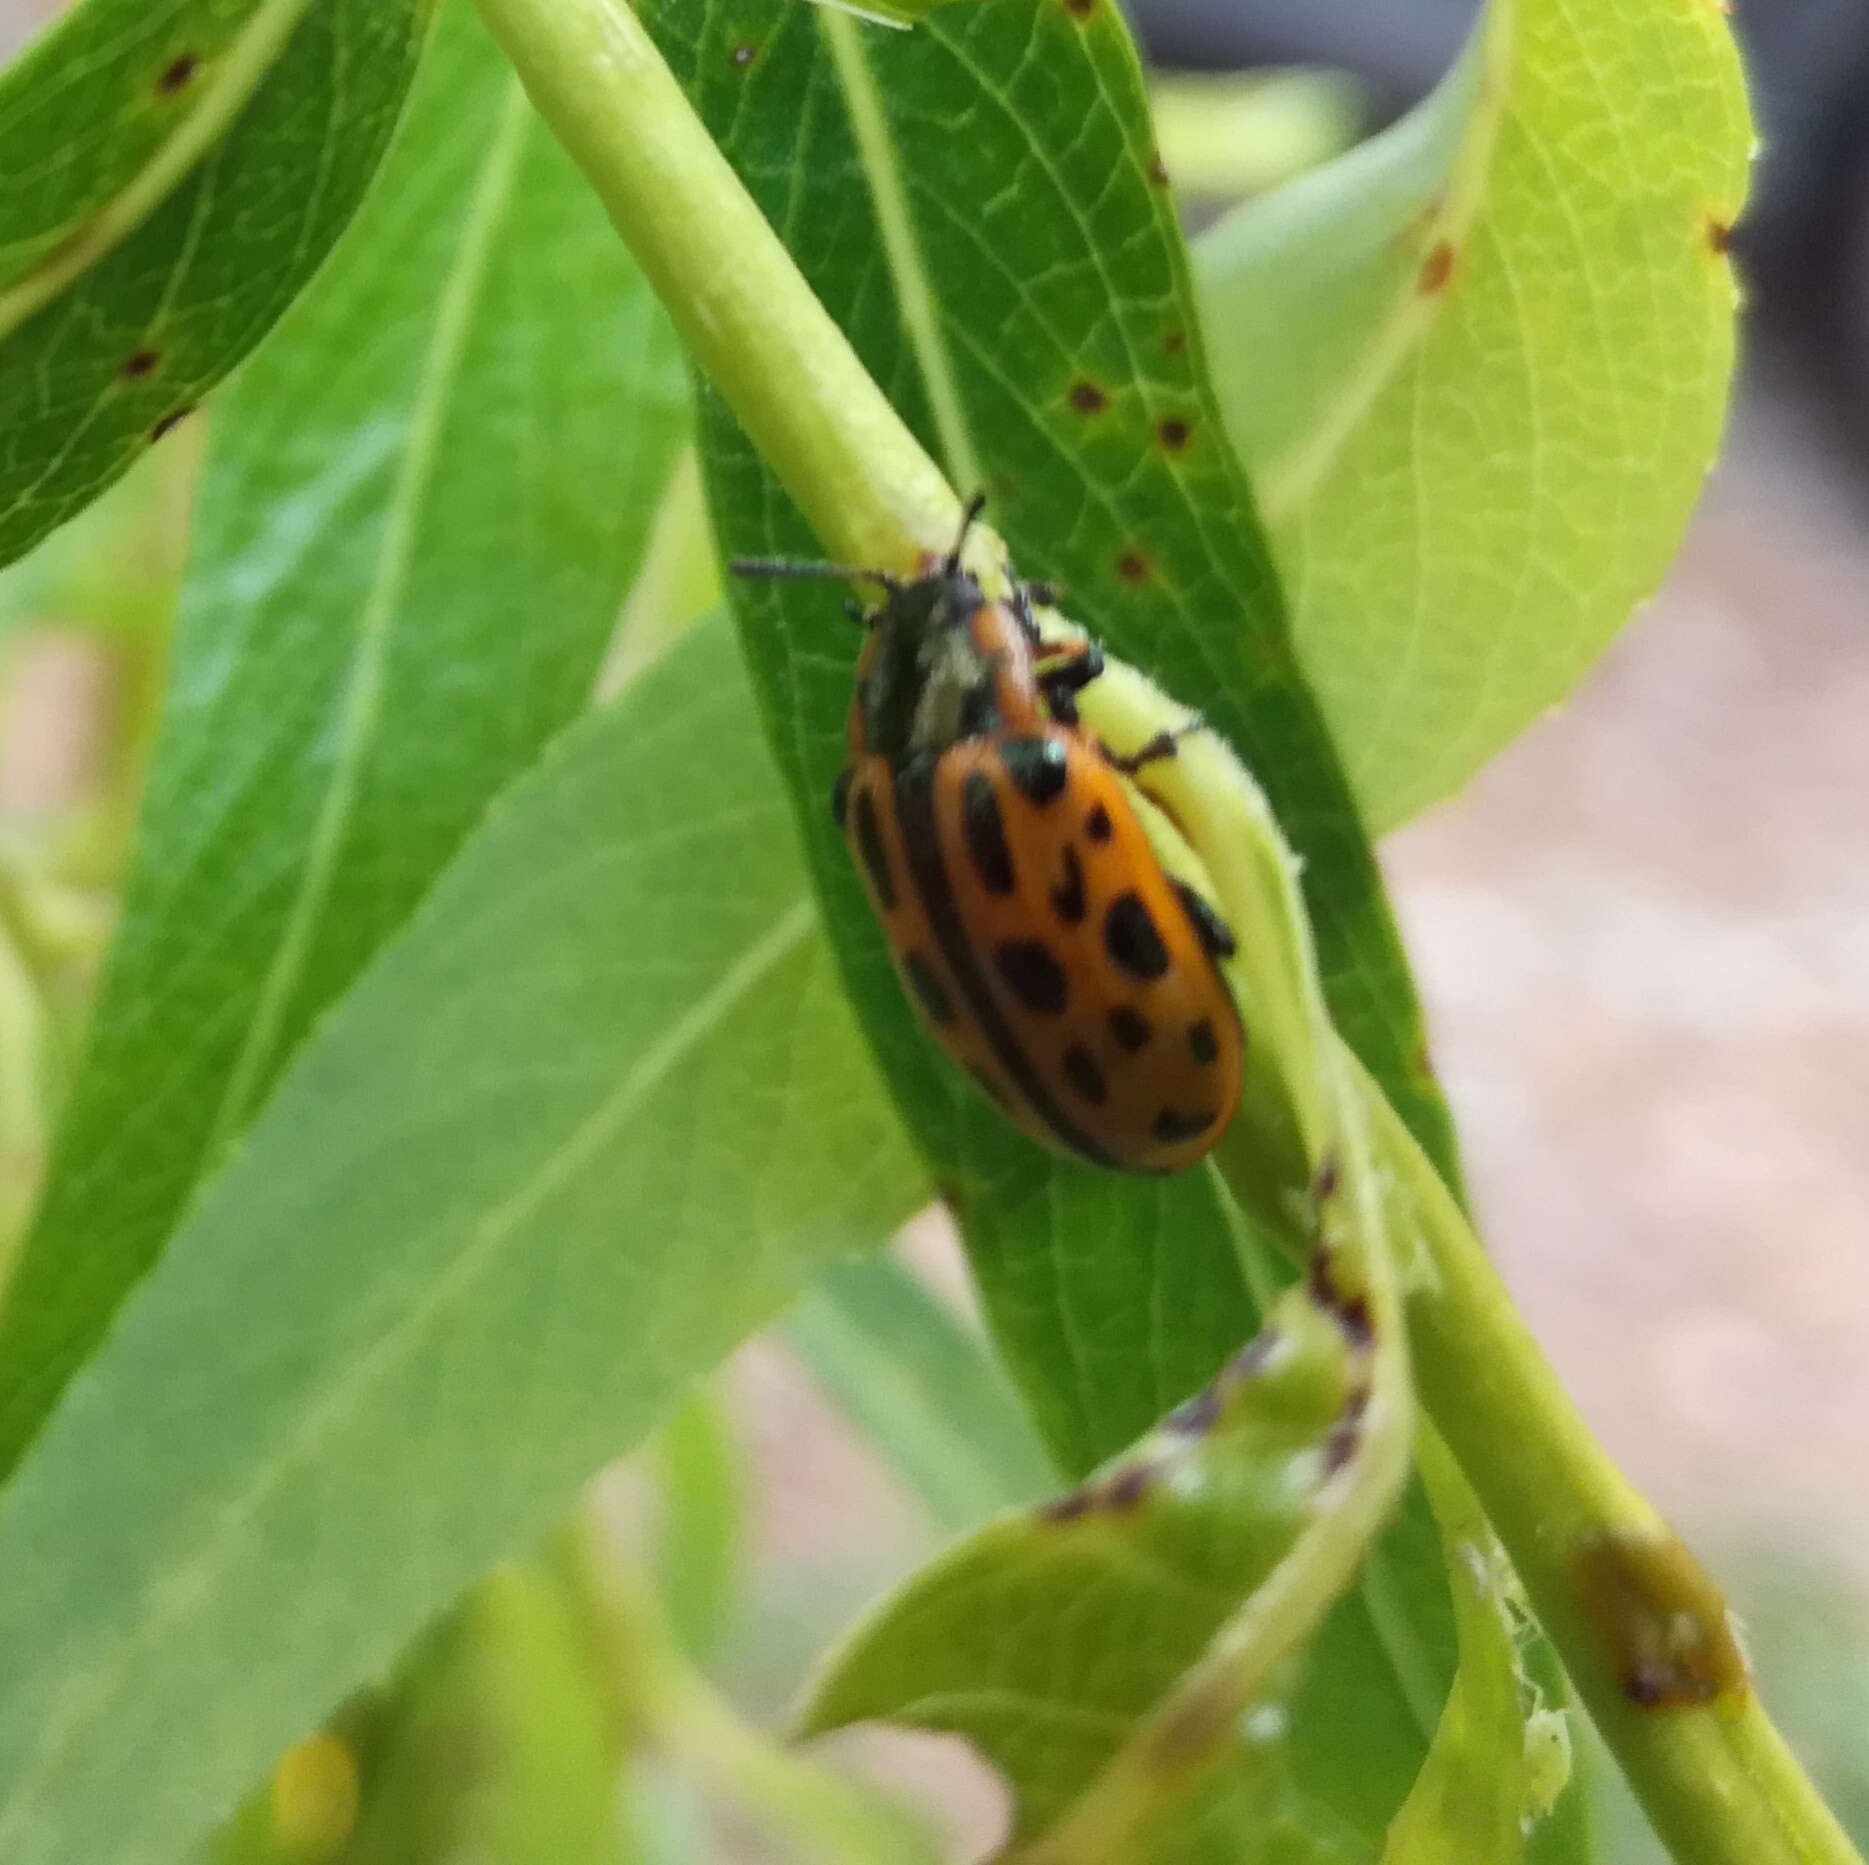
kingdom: Animalia
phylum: Arthropoda
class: Insecta
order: Coleoptera
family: Chrysomelidae
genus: Chrysomela
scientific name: Chrysomela vigintipunctata
